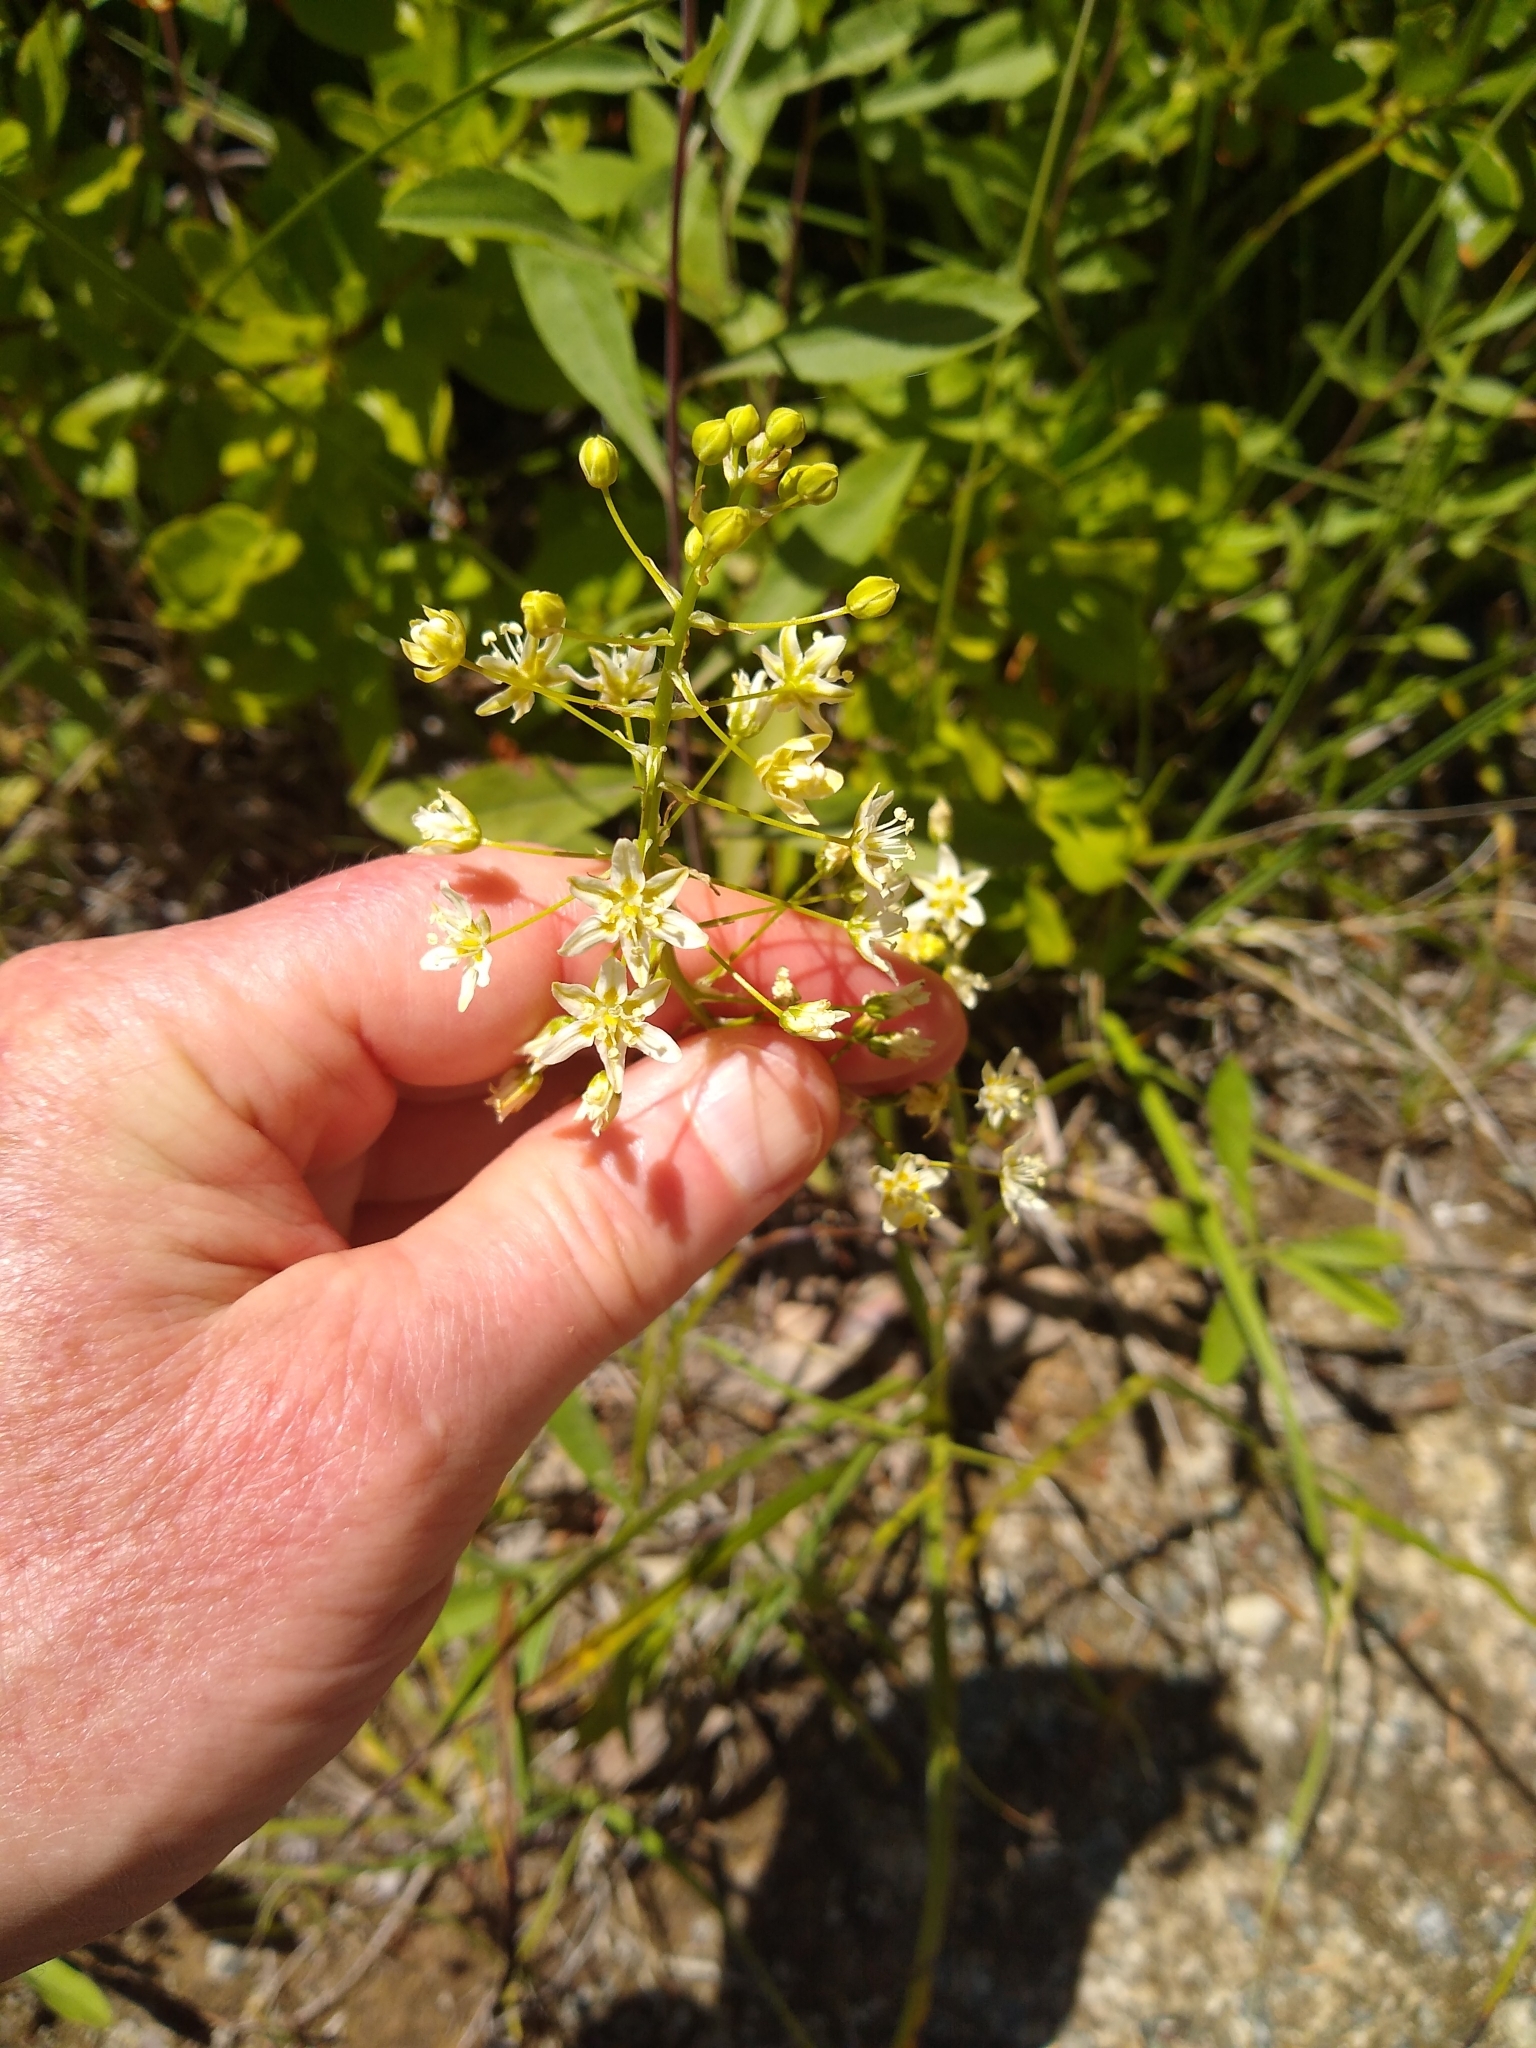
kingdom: Plantae
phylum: Tracheophyta
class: Liliopsida
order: Liliales
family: Melanthiaceae
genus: Toxicoscordion
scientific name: Toxicoscordion fontanum
